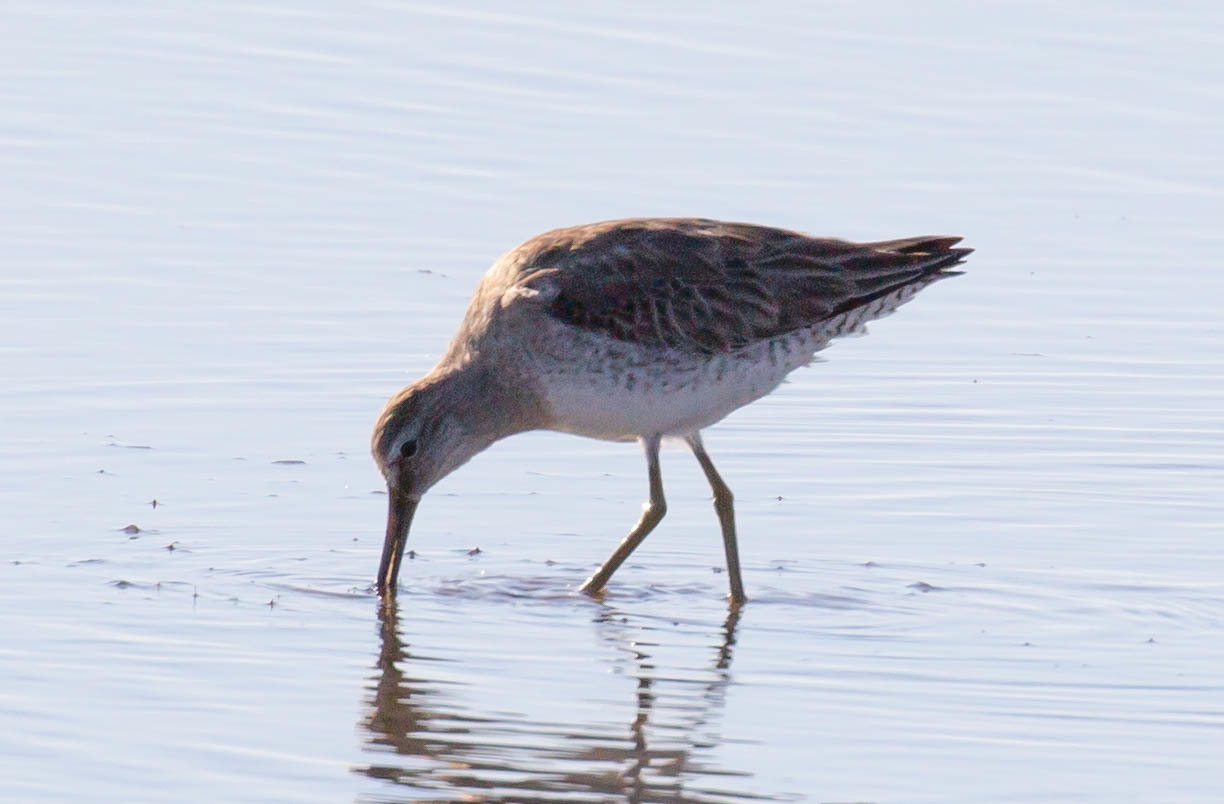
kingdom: Animalia
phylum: Chordata
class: Aves
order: Charadriiformes
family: Scolopacidae
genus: Limnodromus
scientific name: Limnodromus griseus
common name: Short-billed dowitcher
